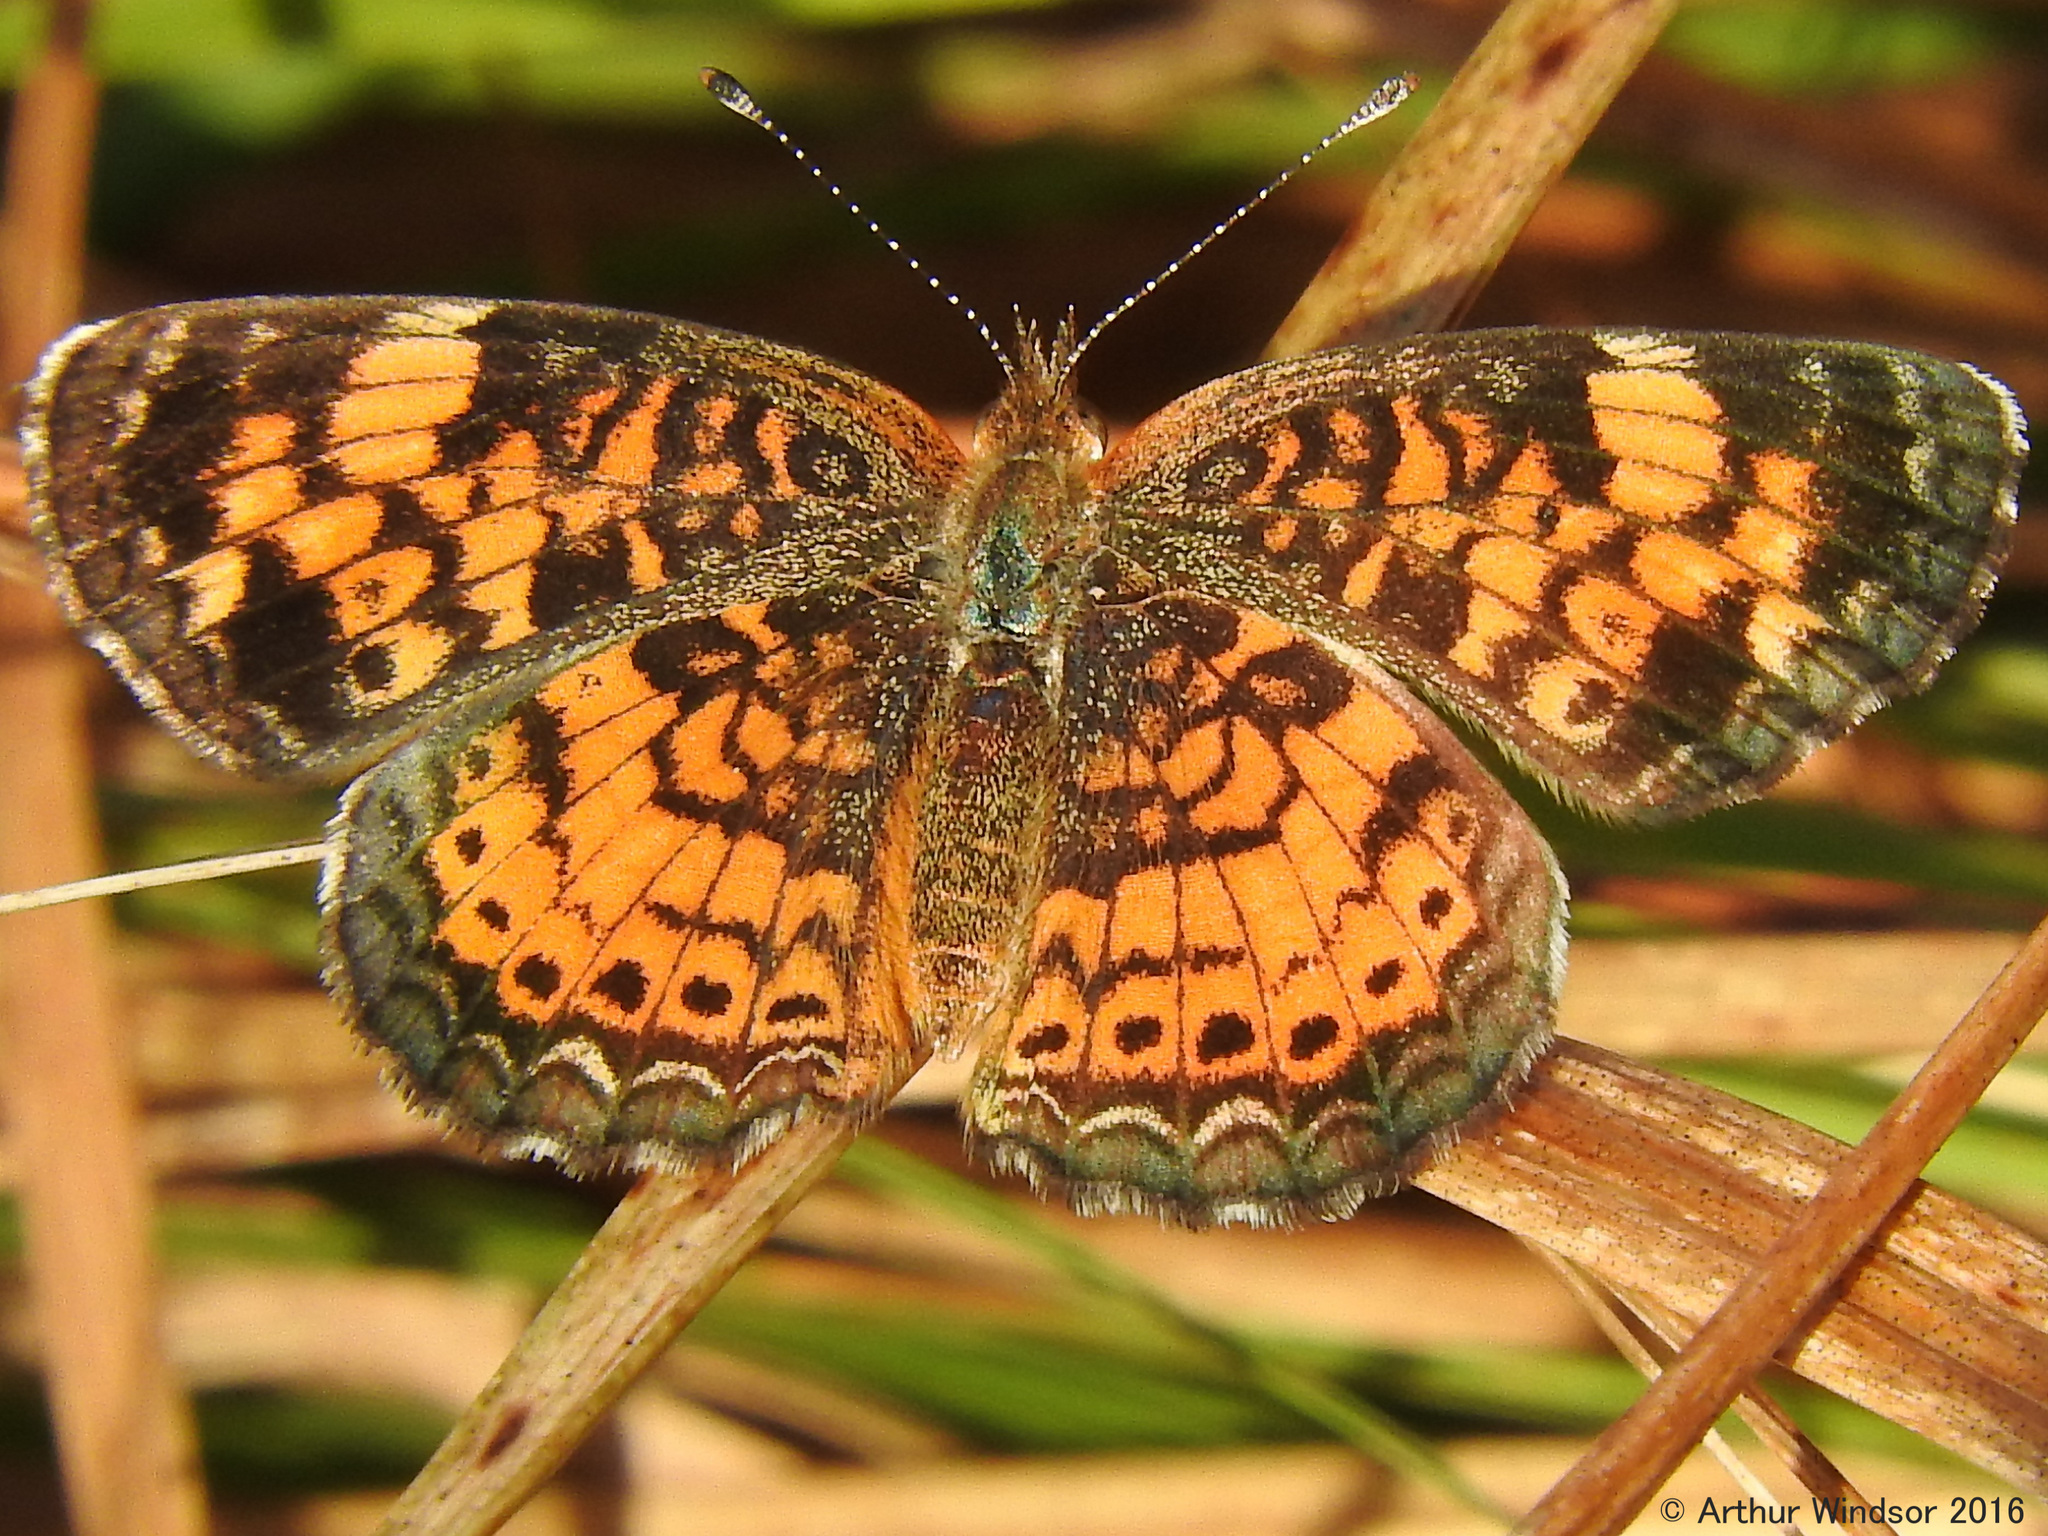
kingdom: Animalia
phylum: Arthropoda
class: Insecta
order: Lepidoptera
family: Nymphalidae
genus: Phyciodes
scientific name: Phyciodes tharos
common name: Pearl crescent
